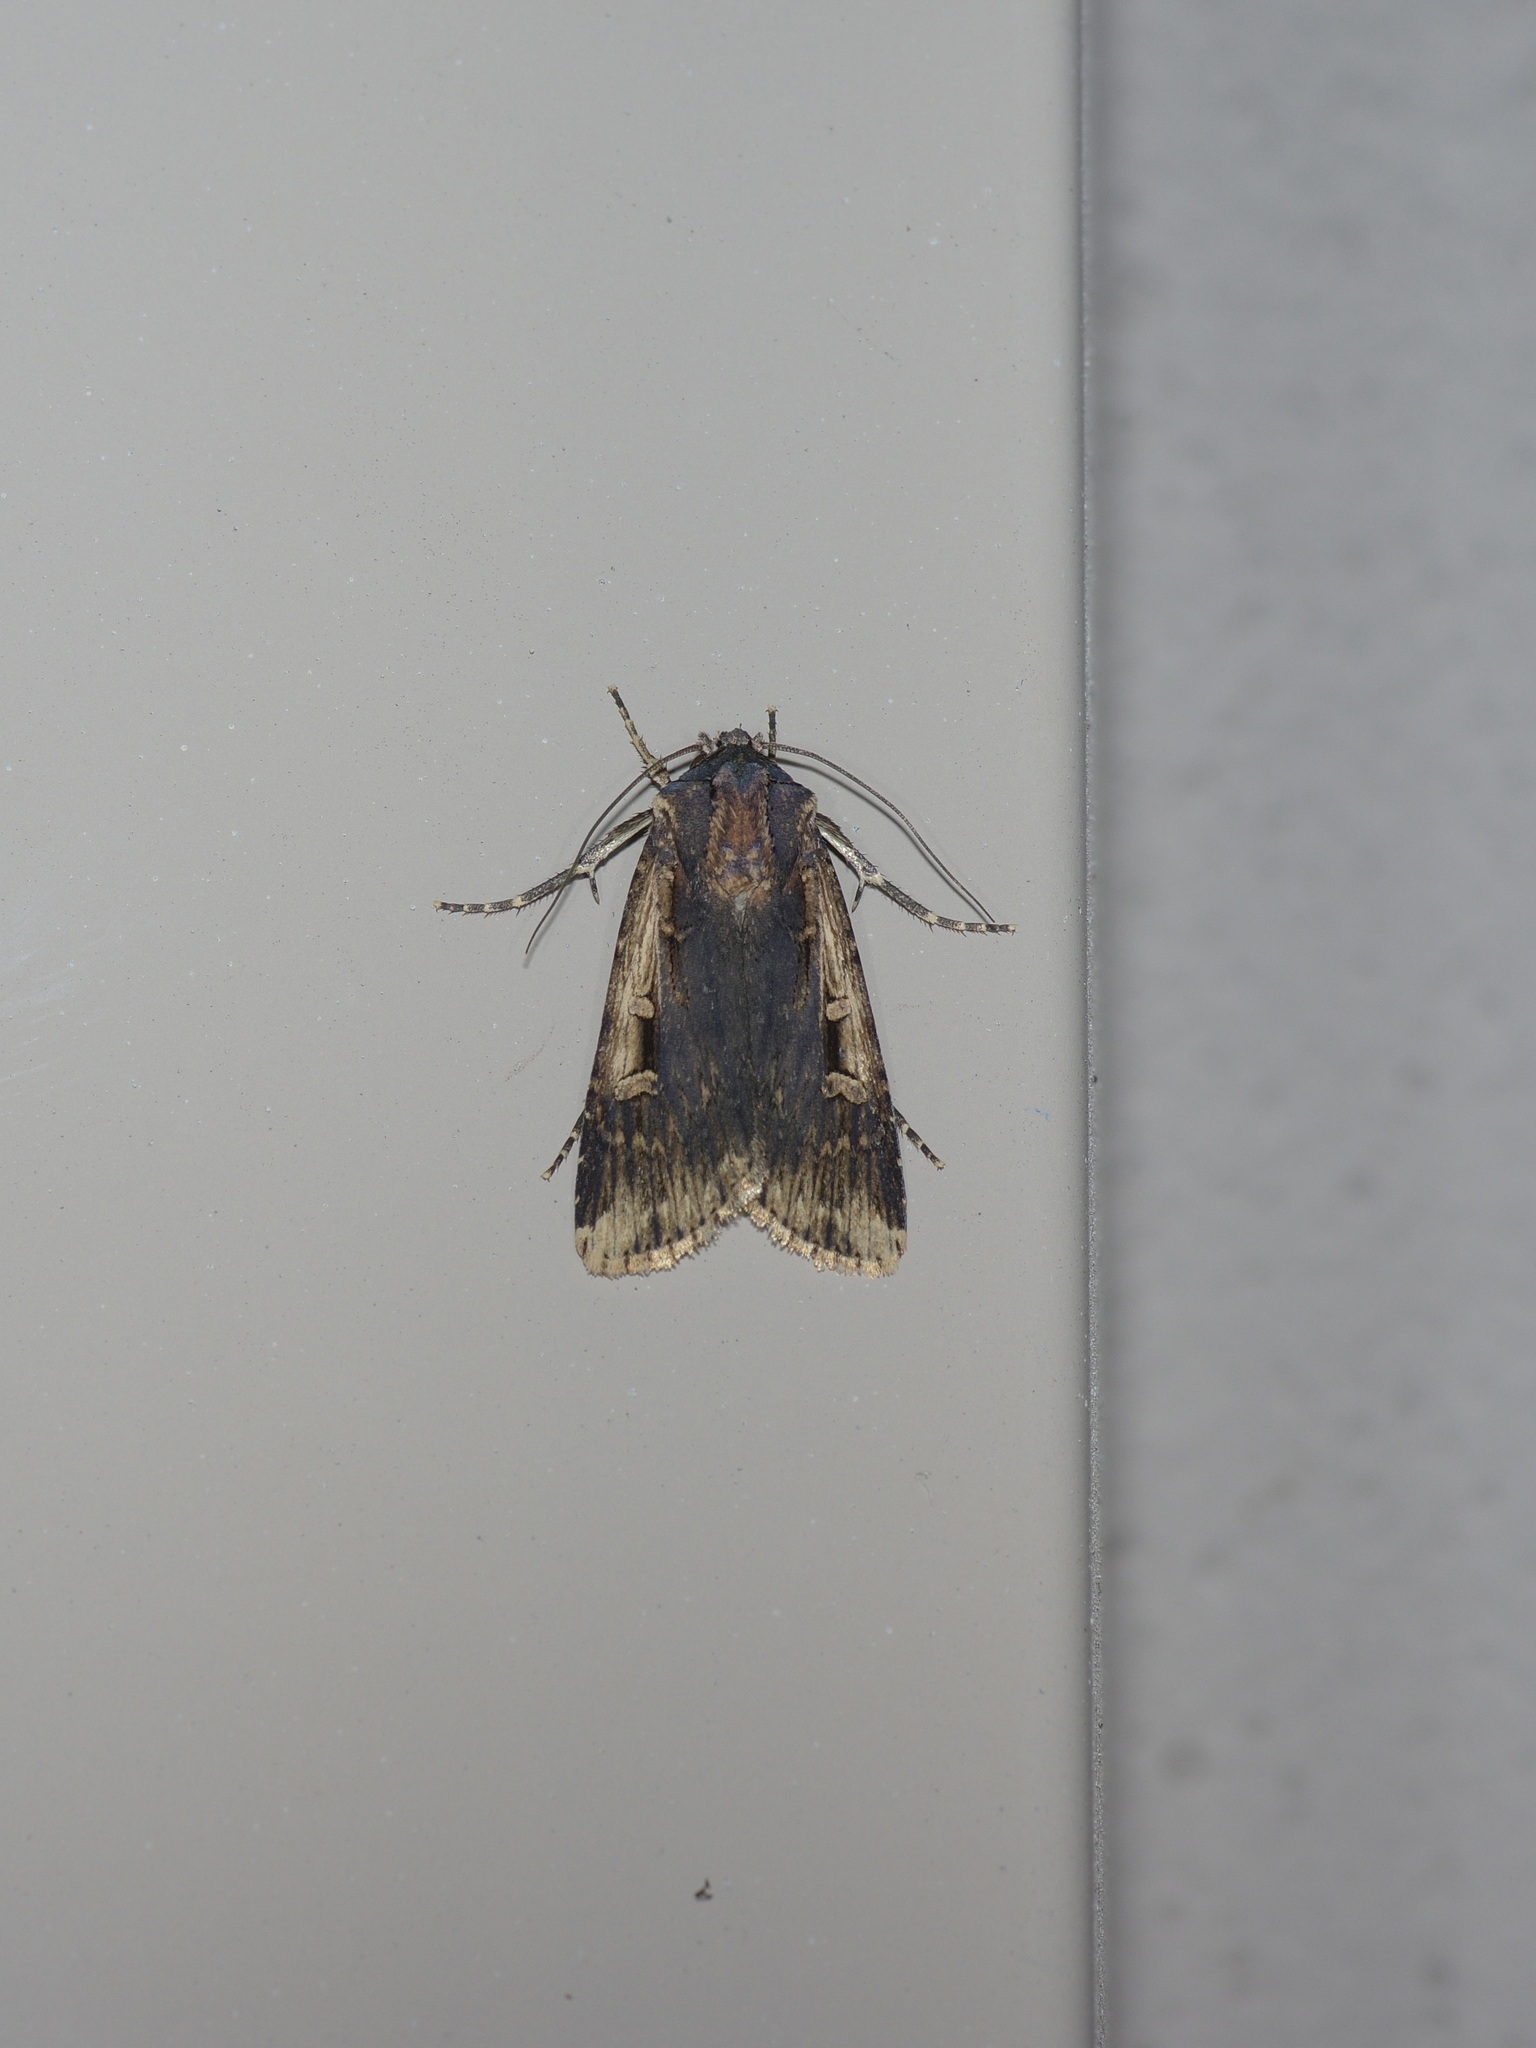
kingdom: Animalia
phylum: Arthropoda
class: Insecta
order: Lepidoptera
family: Noctuidae
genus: Feltia
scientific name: Feltia subterranea
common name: Granulate cutworm
